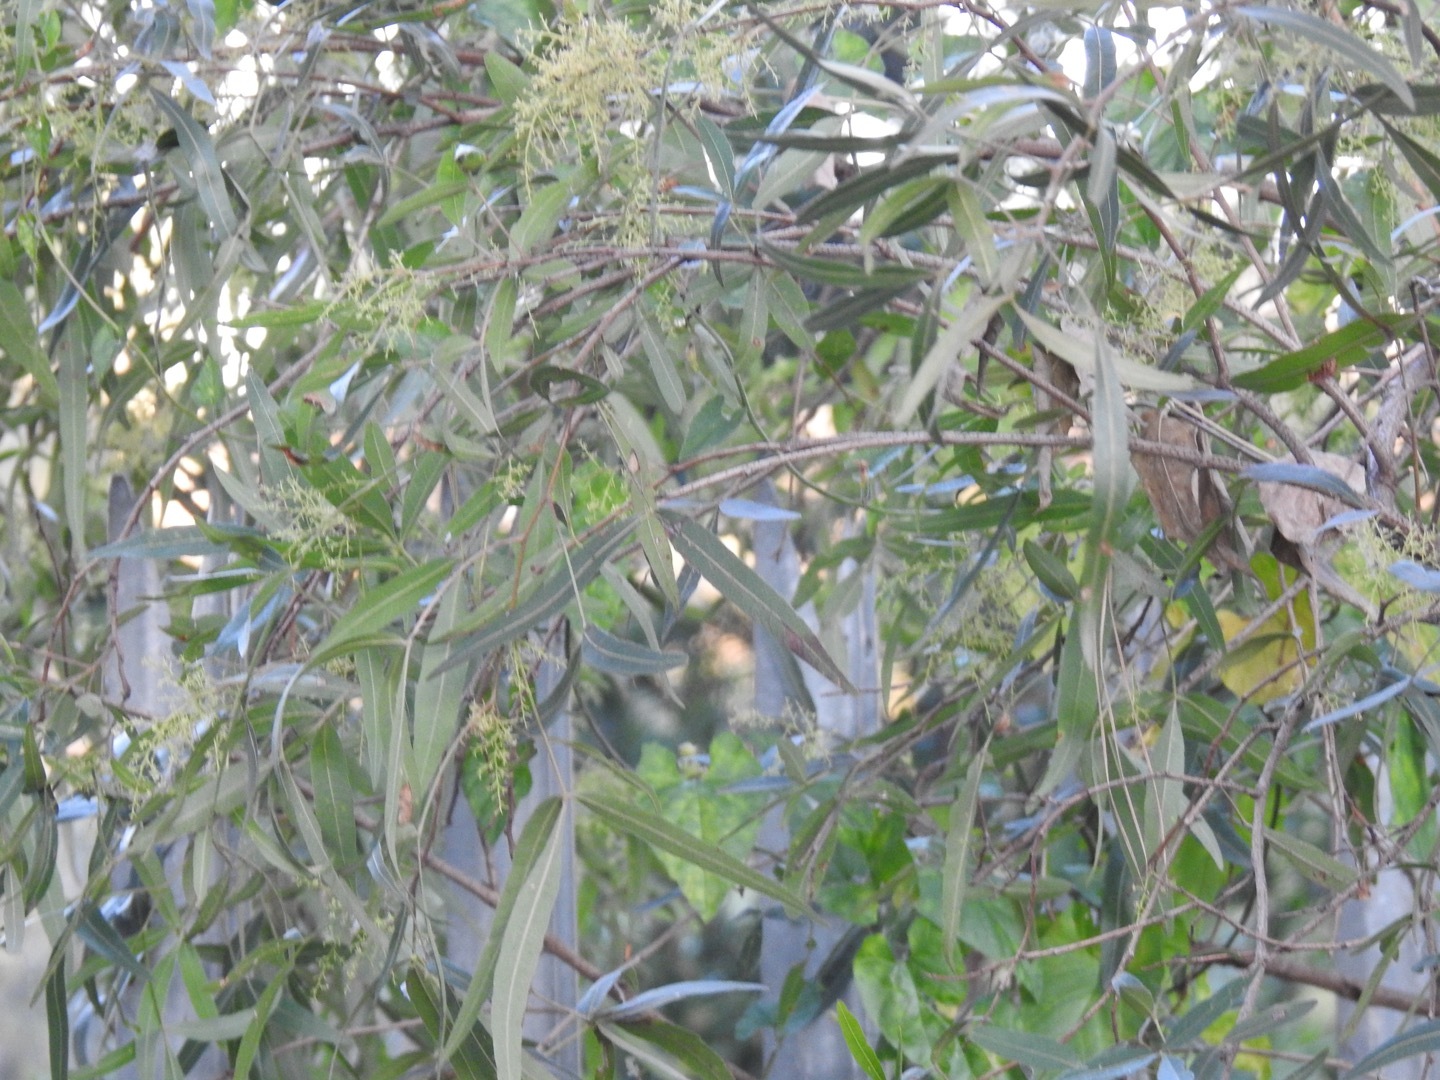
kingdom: Plantae
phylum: Tracheophyta
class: Magnoliopsida
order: Sapindales
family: Anacardiaceae
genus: Searsia
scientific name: Searsia lancea
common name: Cashew
